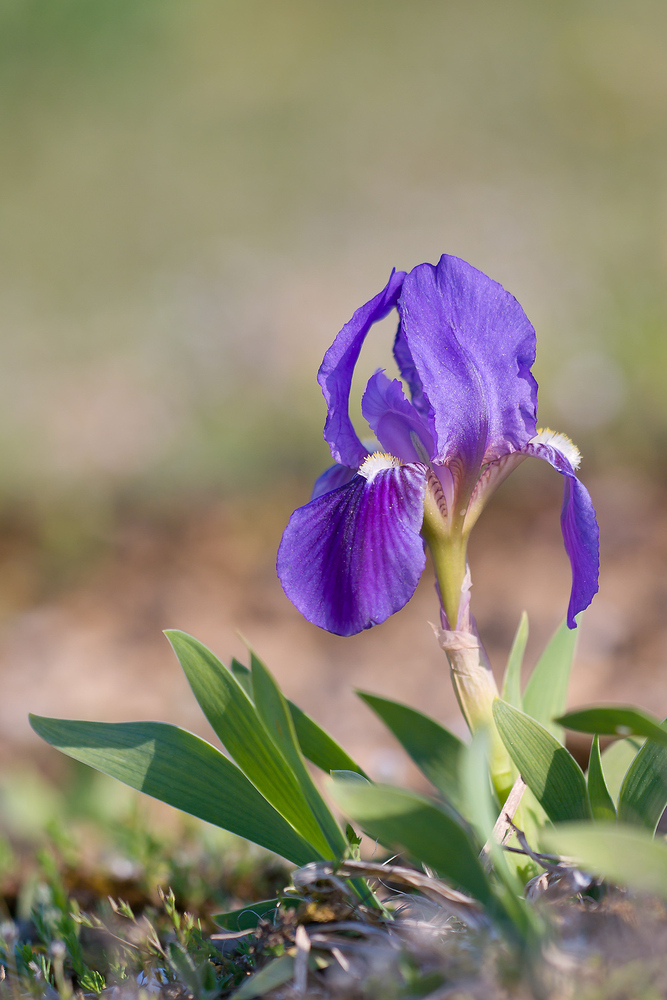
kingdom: Plantae
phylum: Tracheophyta
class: Liliopsida
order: Asparagales
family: Iridaceae
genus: Iris
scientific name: Iris lutescens
